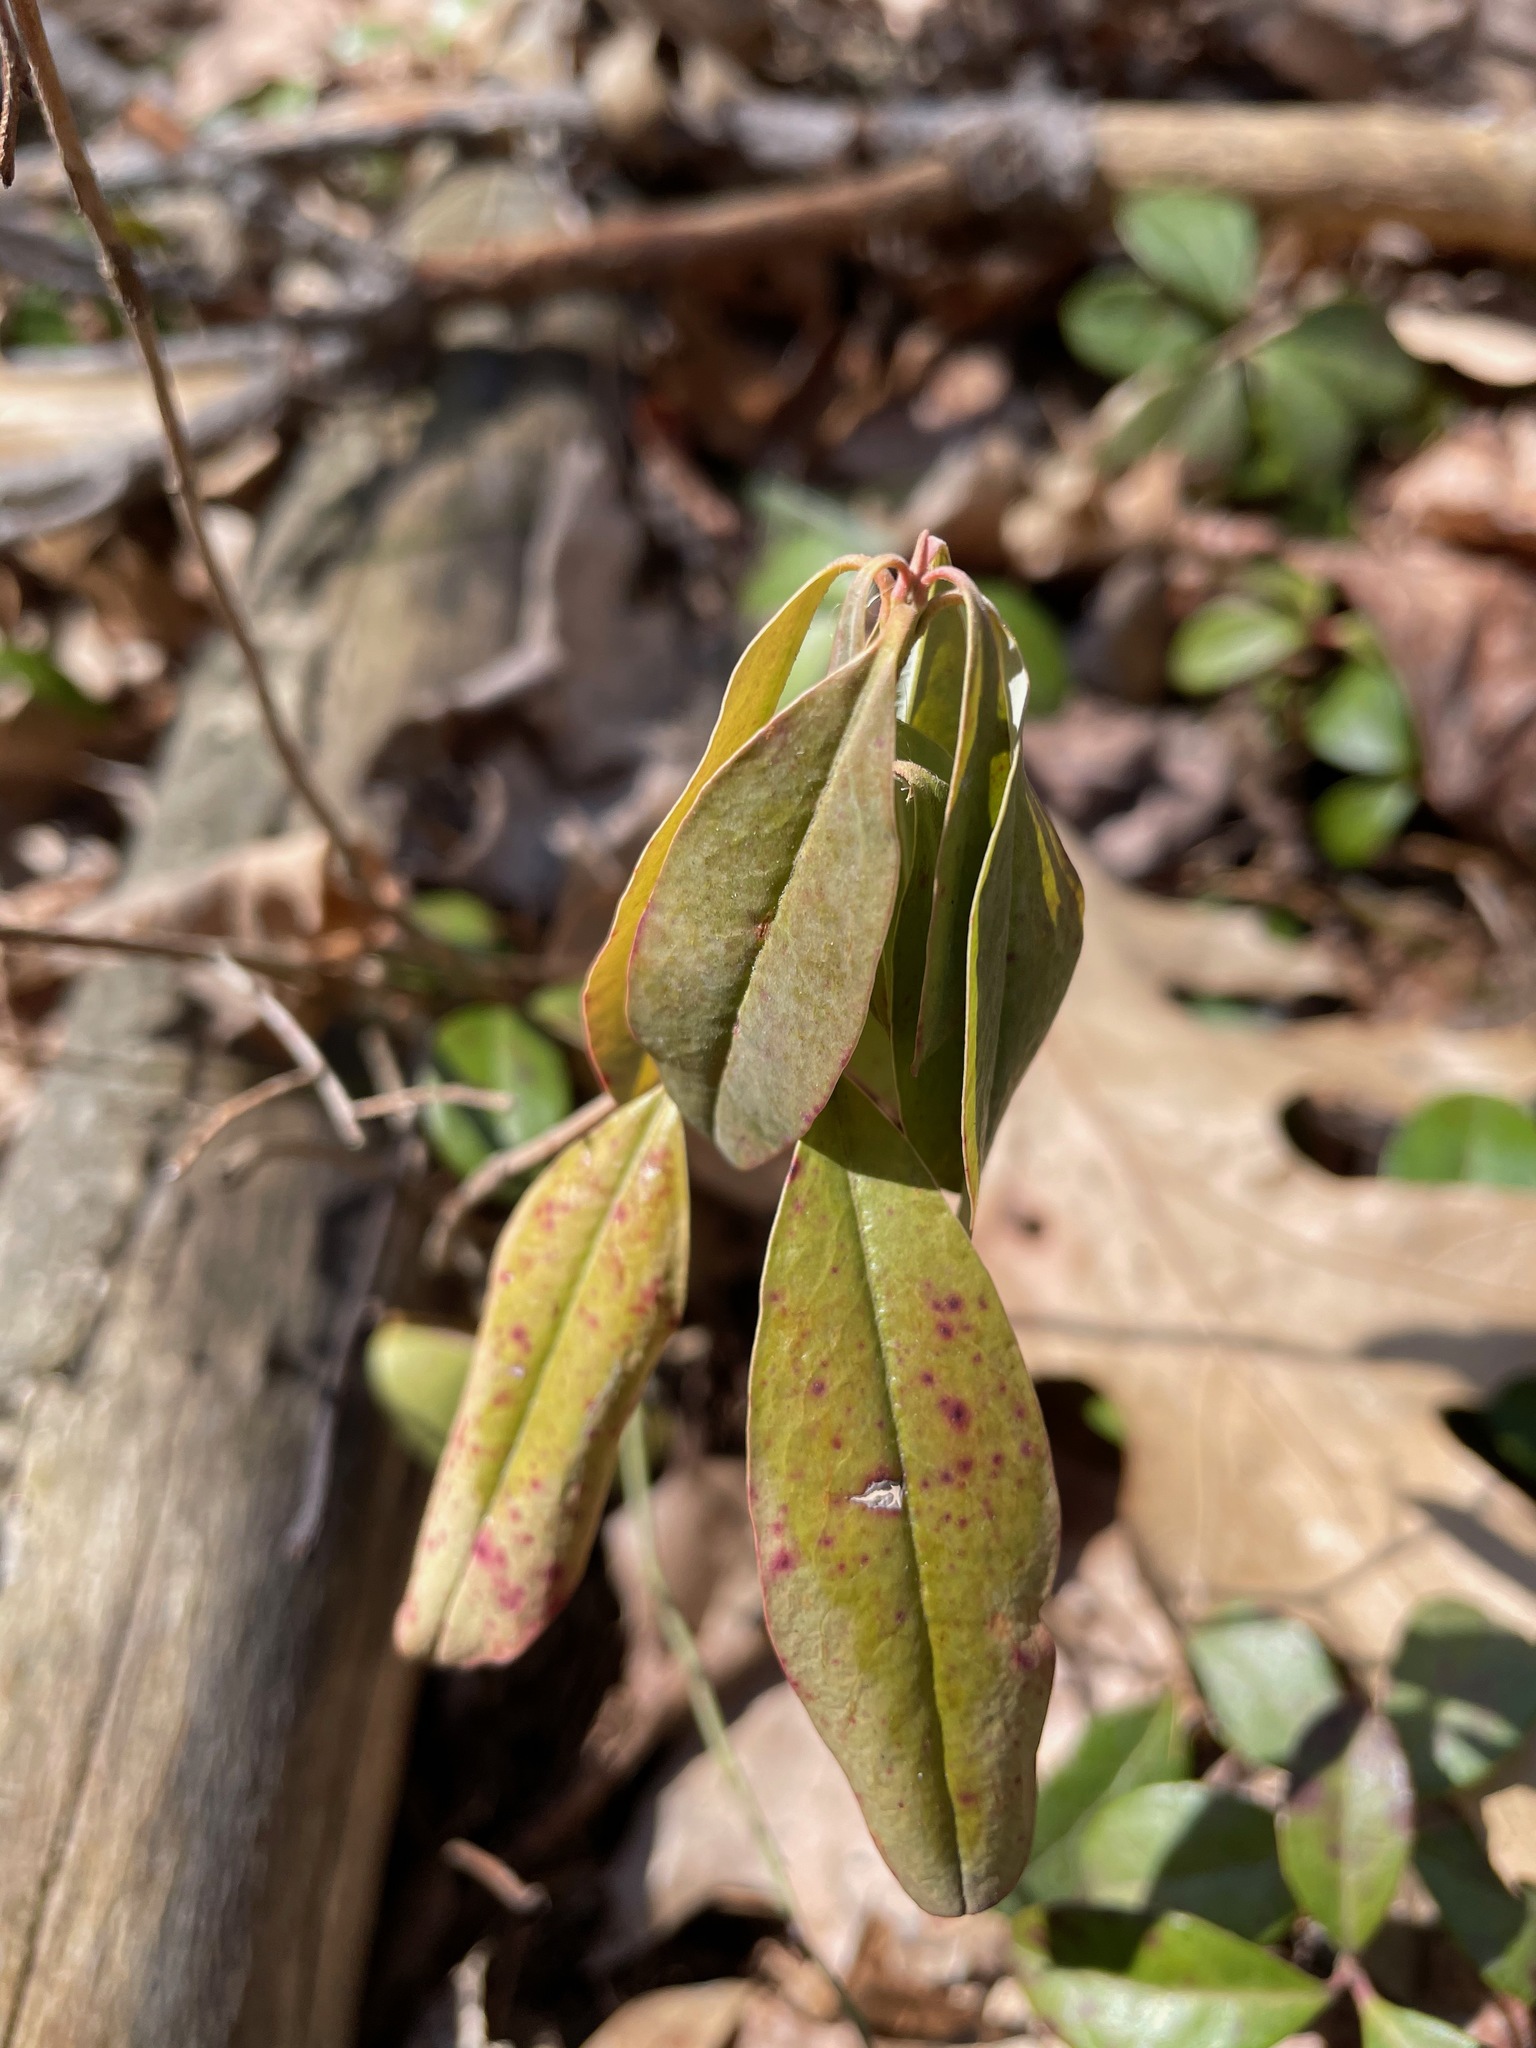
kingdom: Plantae
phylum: Tracheophyta
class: Magnoliopsida
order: Ericales
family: Ericaceae
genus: Kalmia
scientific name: Kalmia angustifolia
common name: Sheep-laurel
